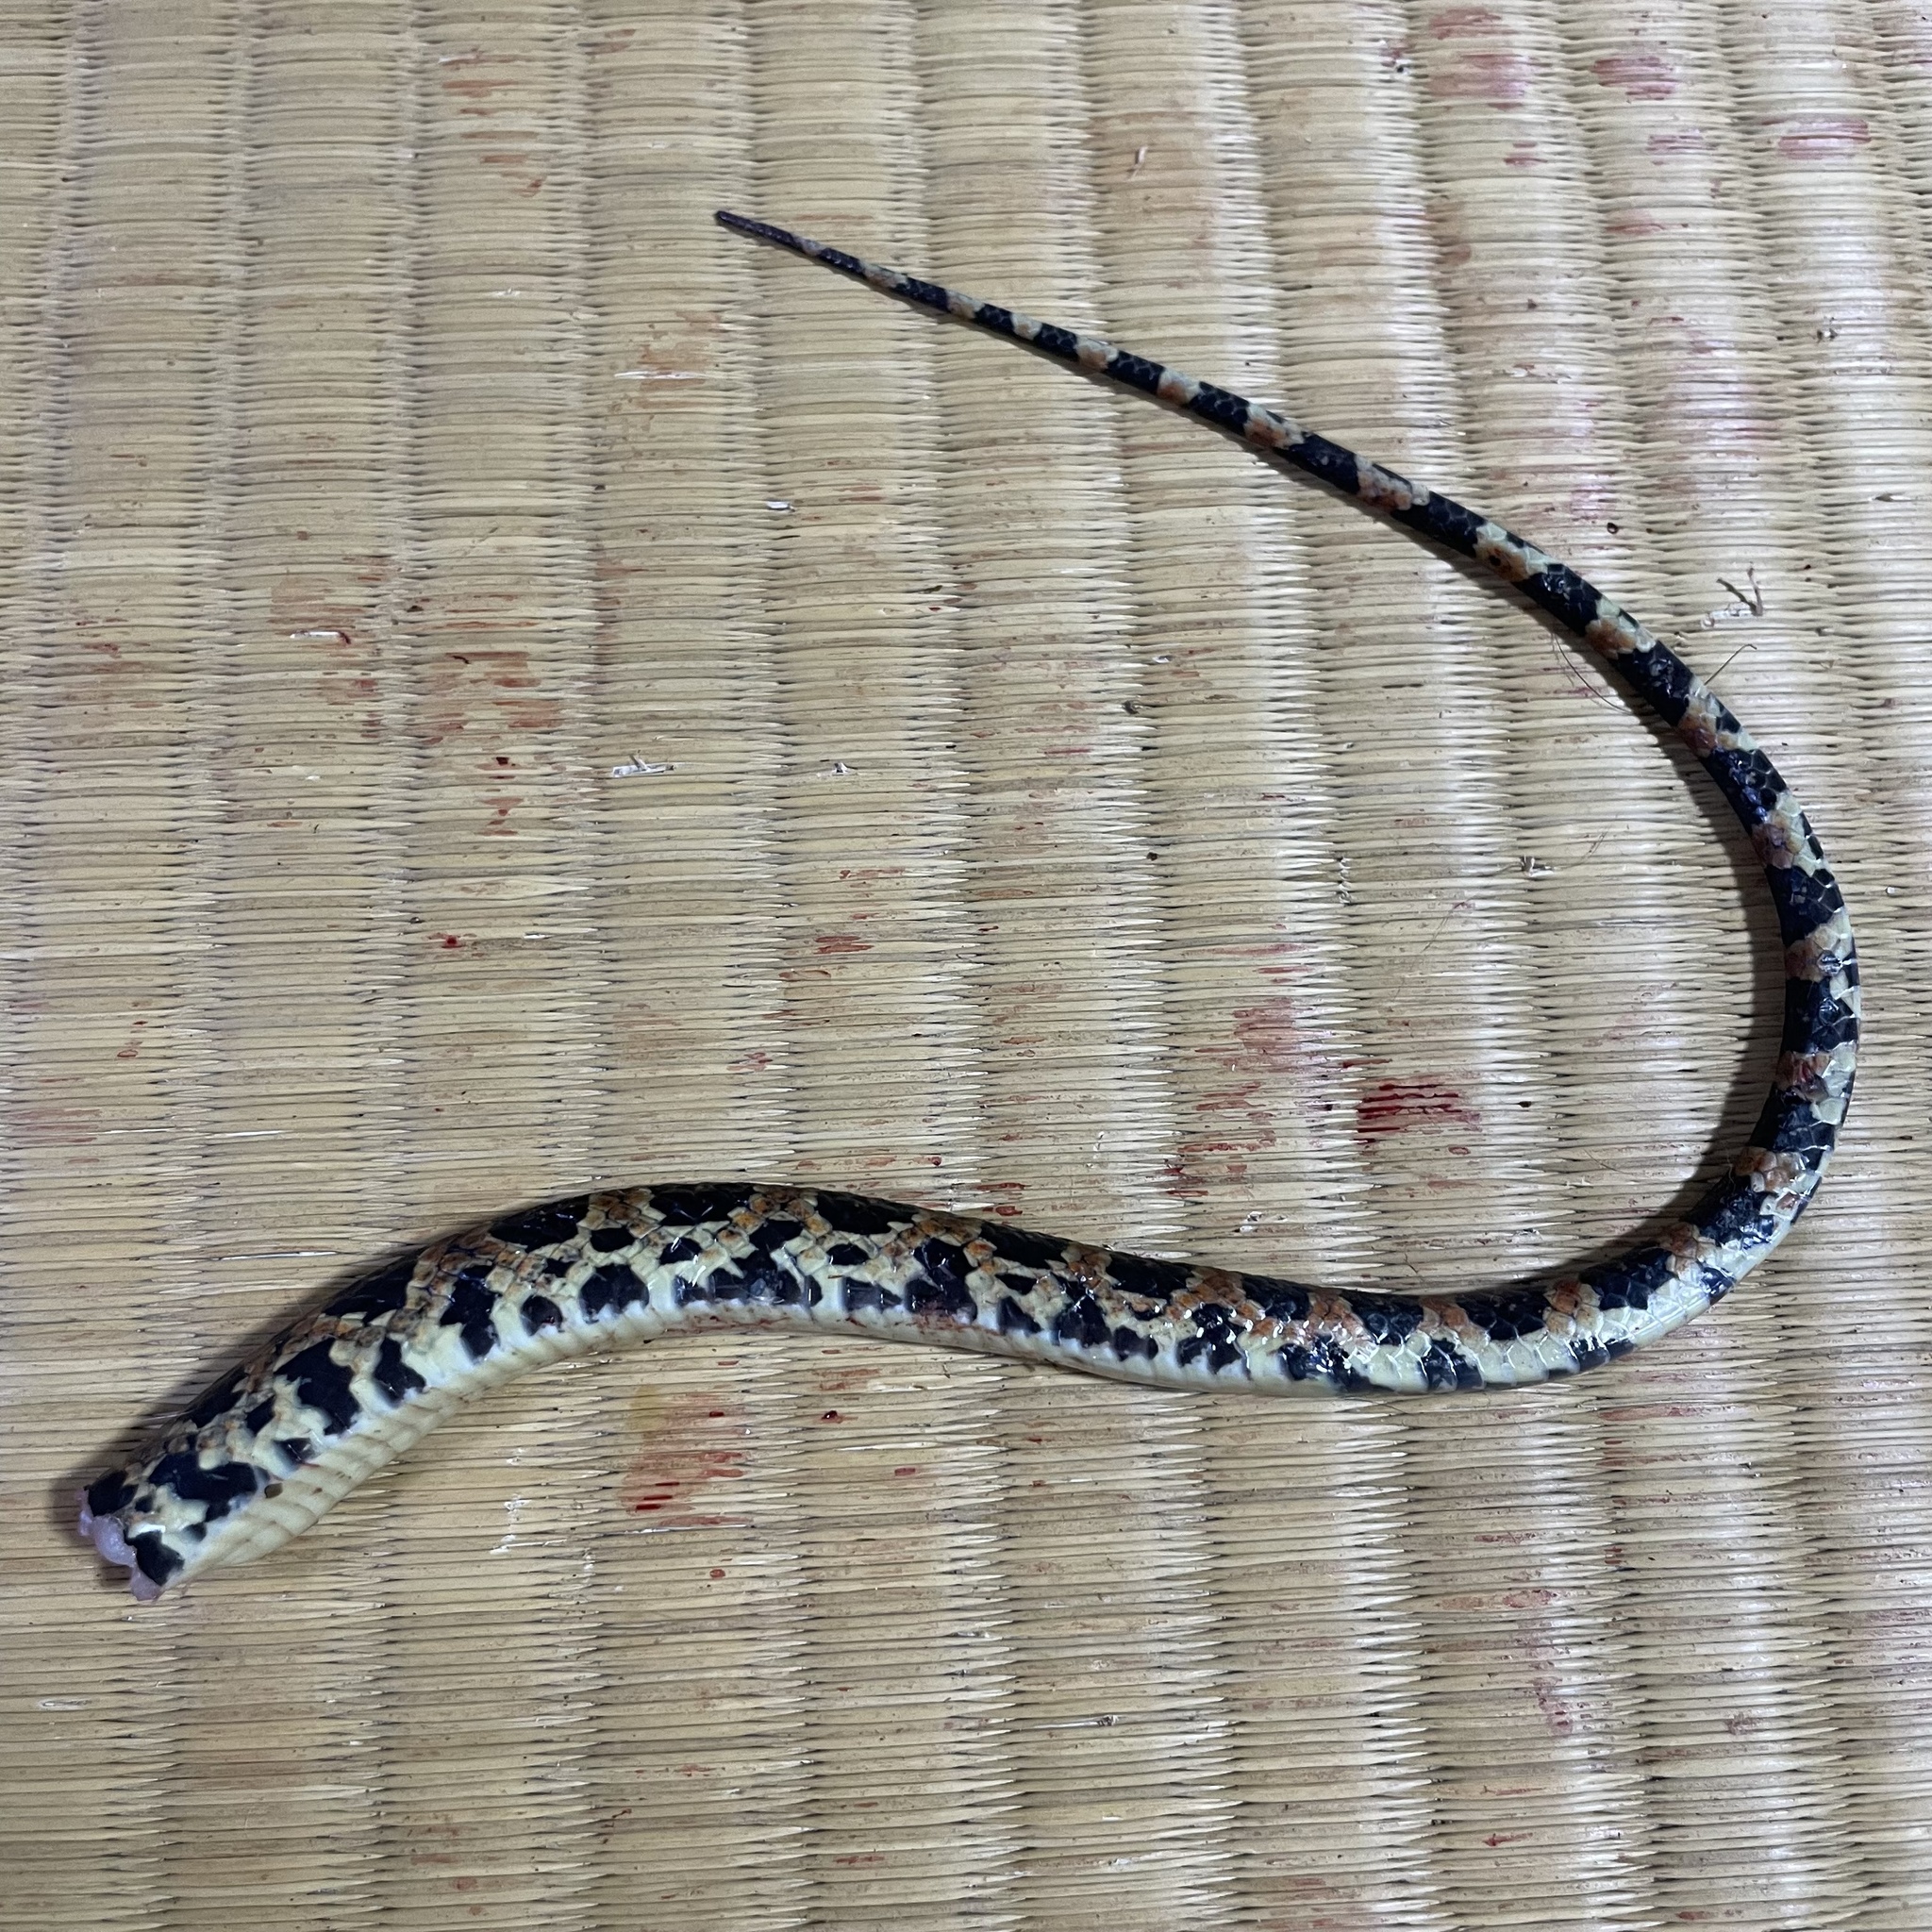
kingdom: Animalia
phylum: Chordata
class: Squamata
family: Colubridae
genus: Lycodon
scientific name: Lycodon semicarinatus
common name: Loo-choo big-tooth snake
